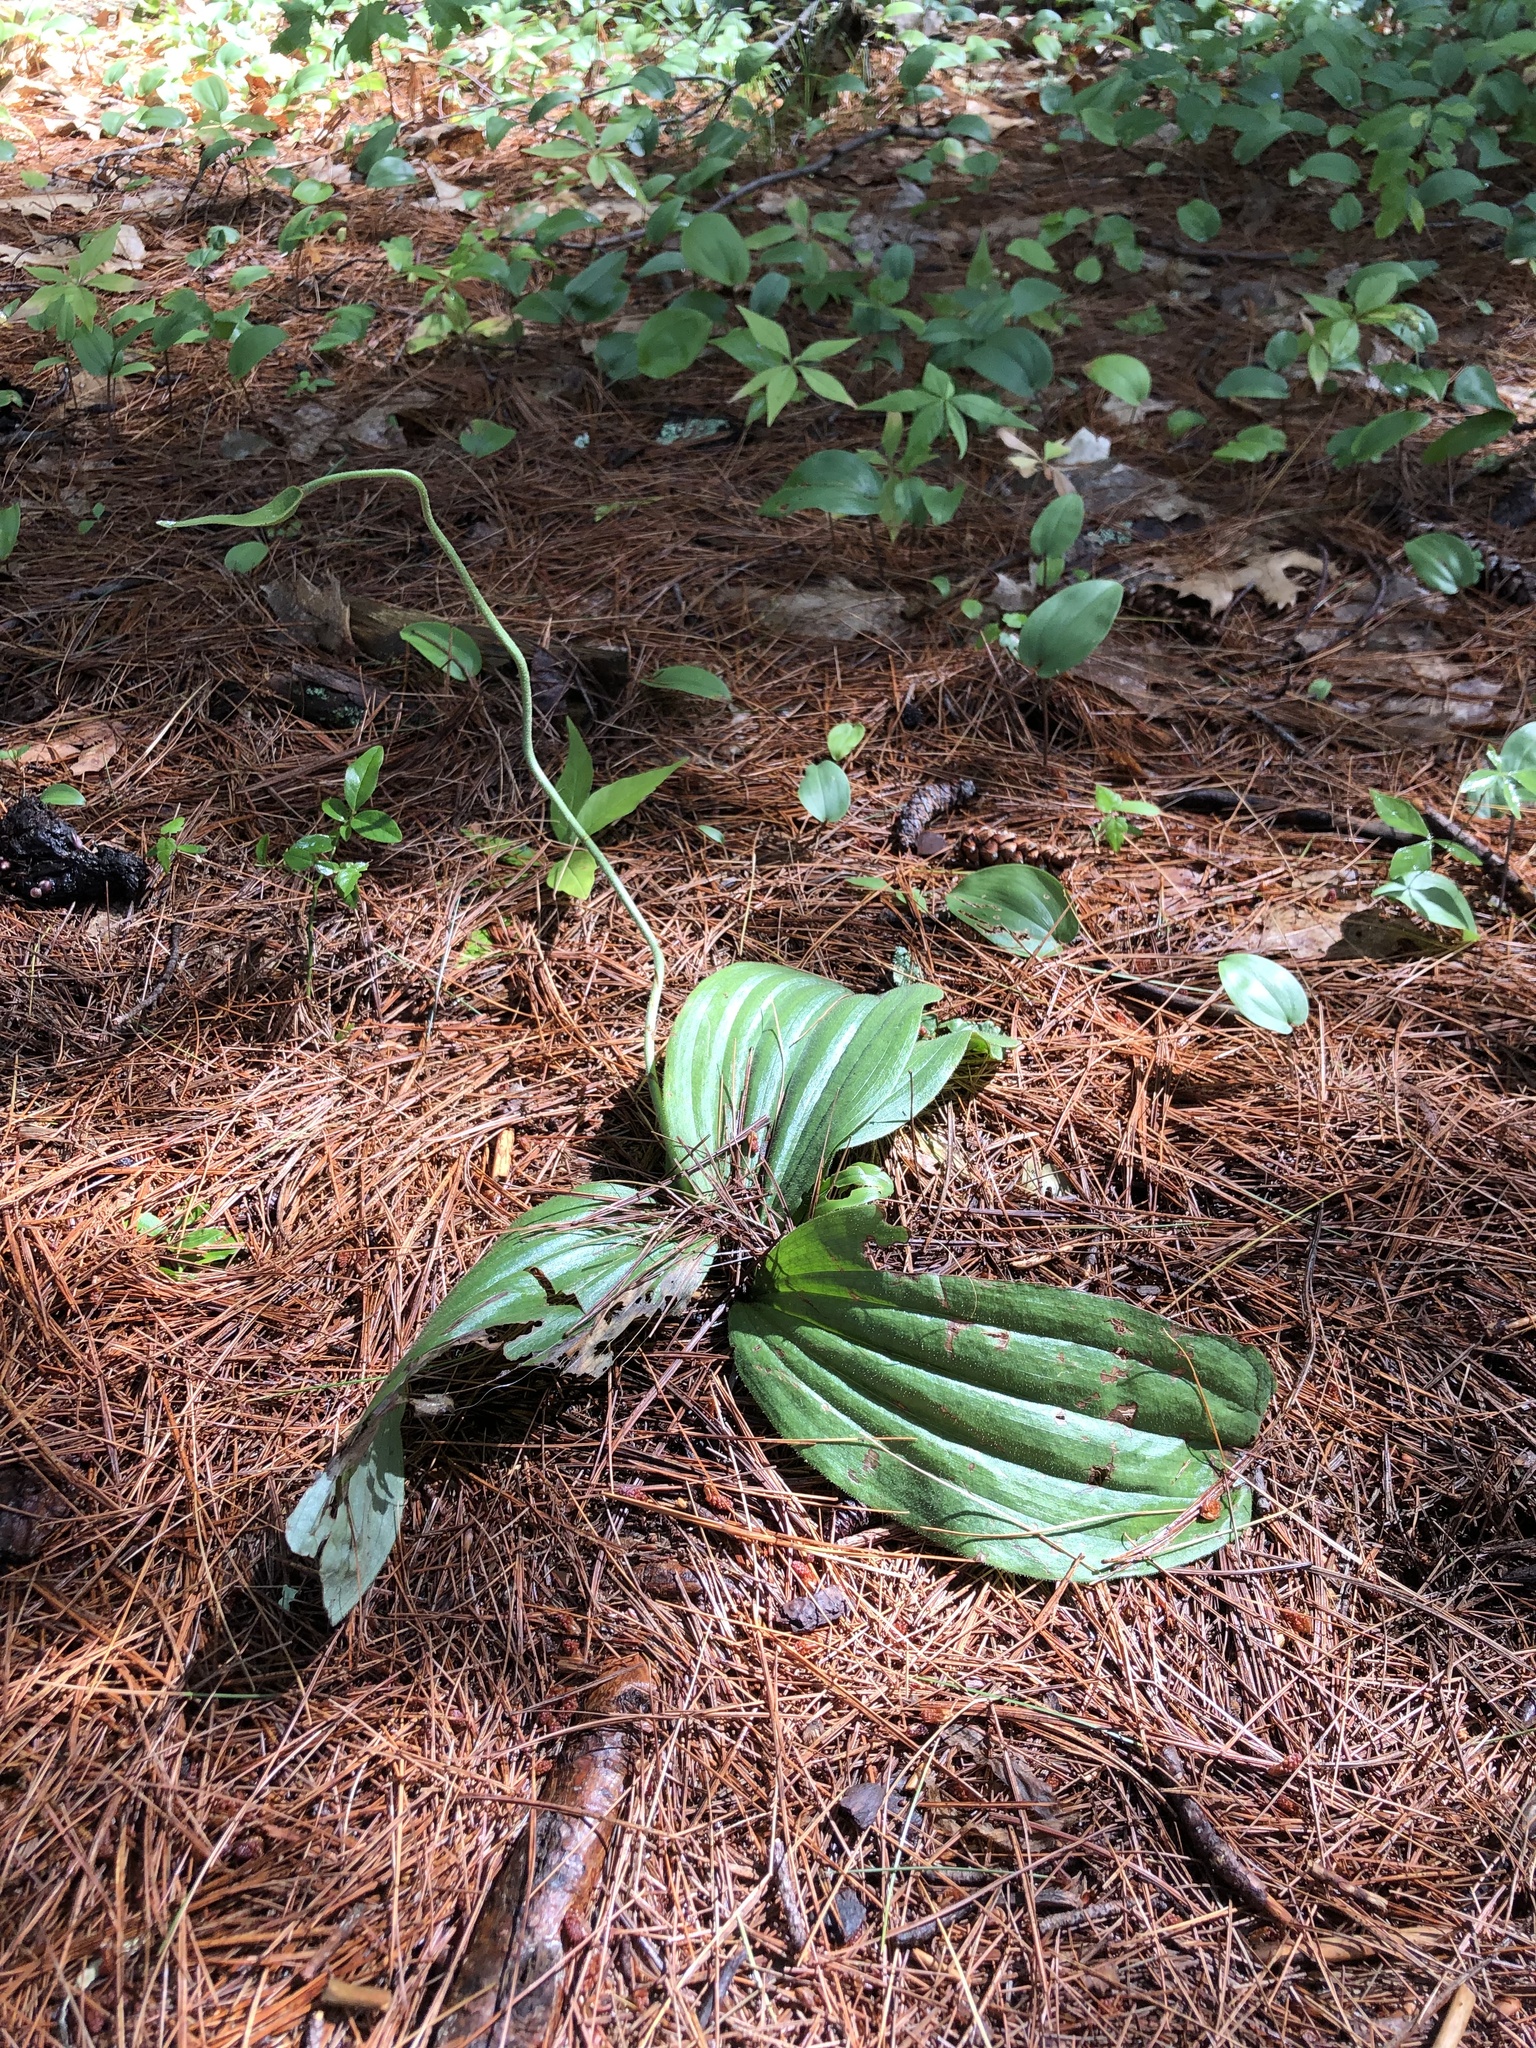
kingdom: Plantae
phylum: Tracheophyta
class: Liliopsida
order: Asparagales
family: Orchidaceae
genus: Cypripedium
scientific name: Cypripedium acaule
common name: Pink lady's-slipper
